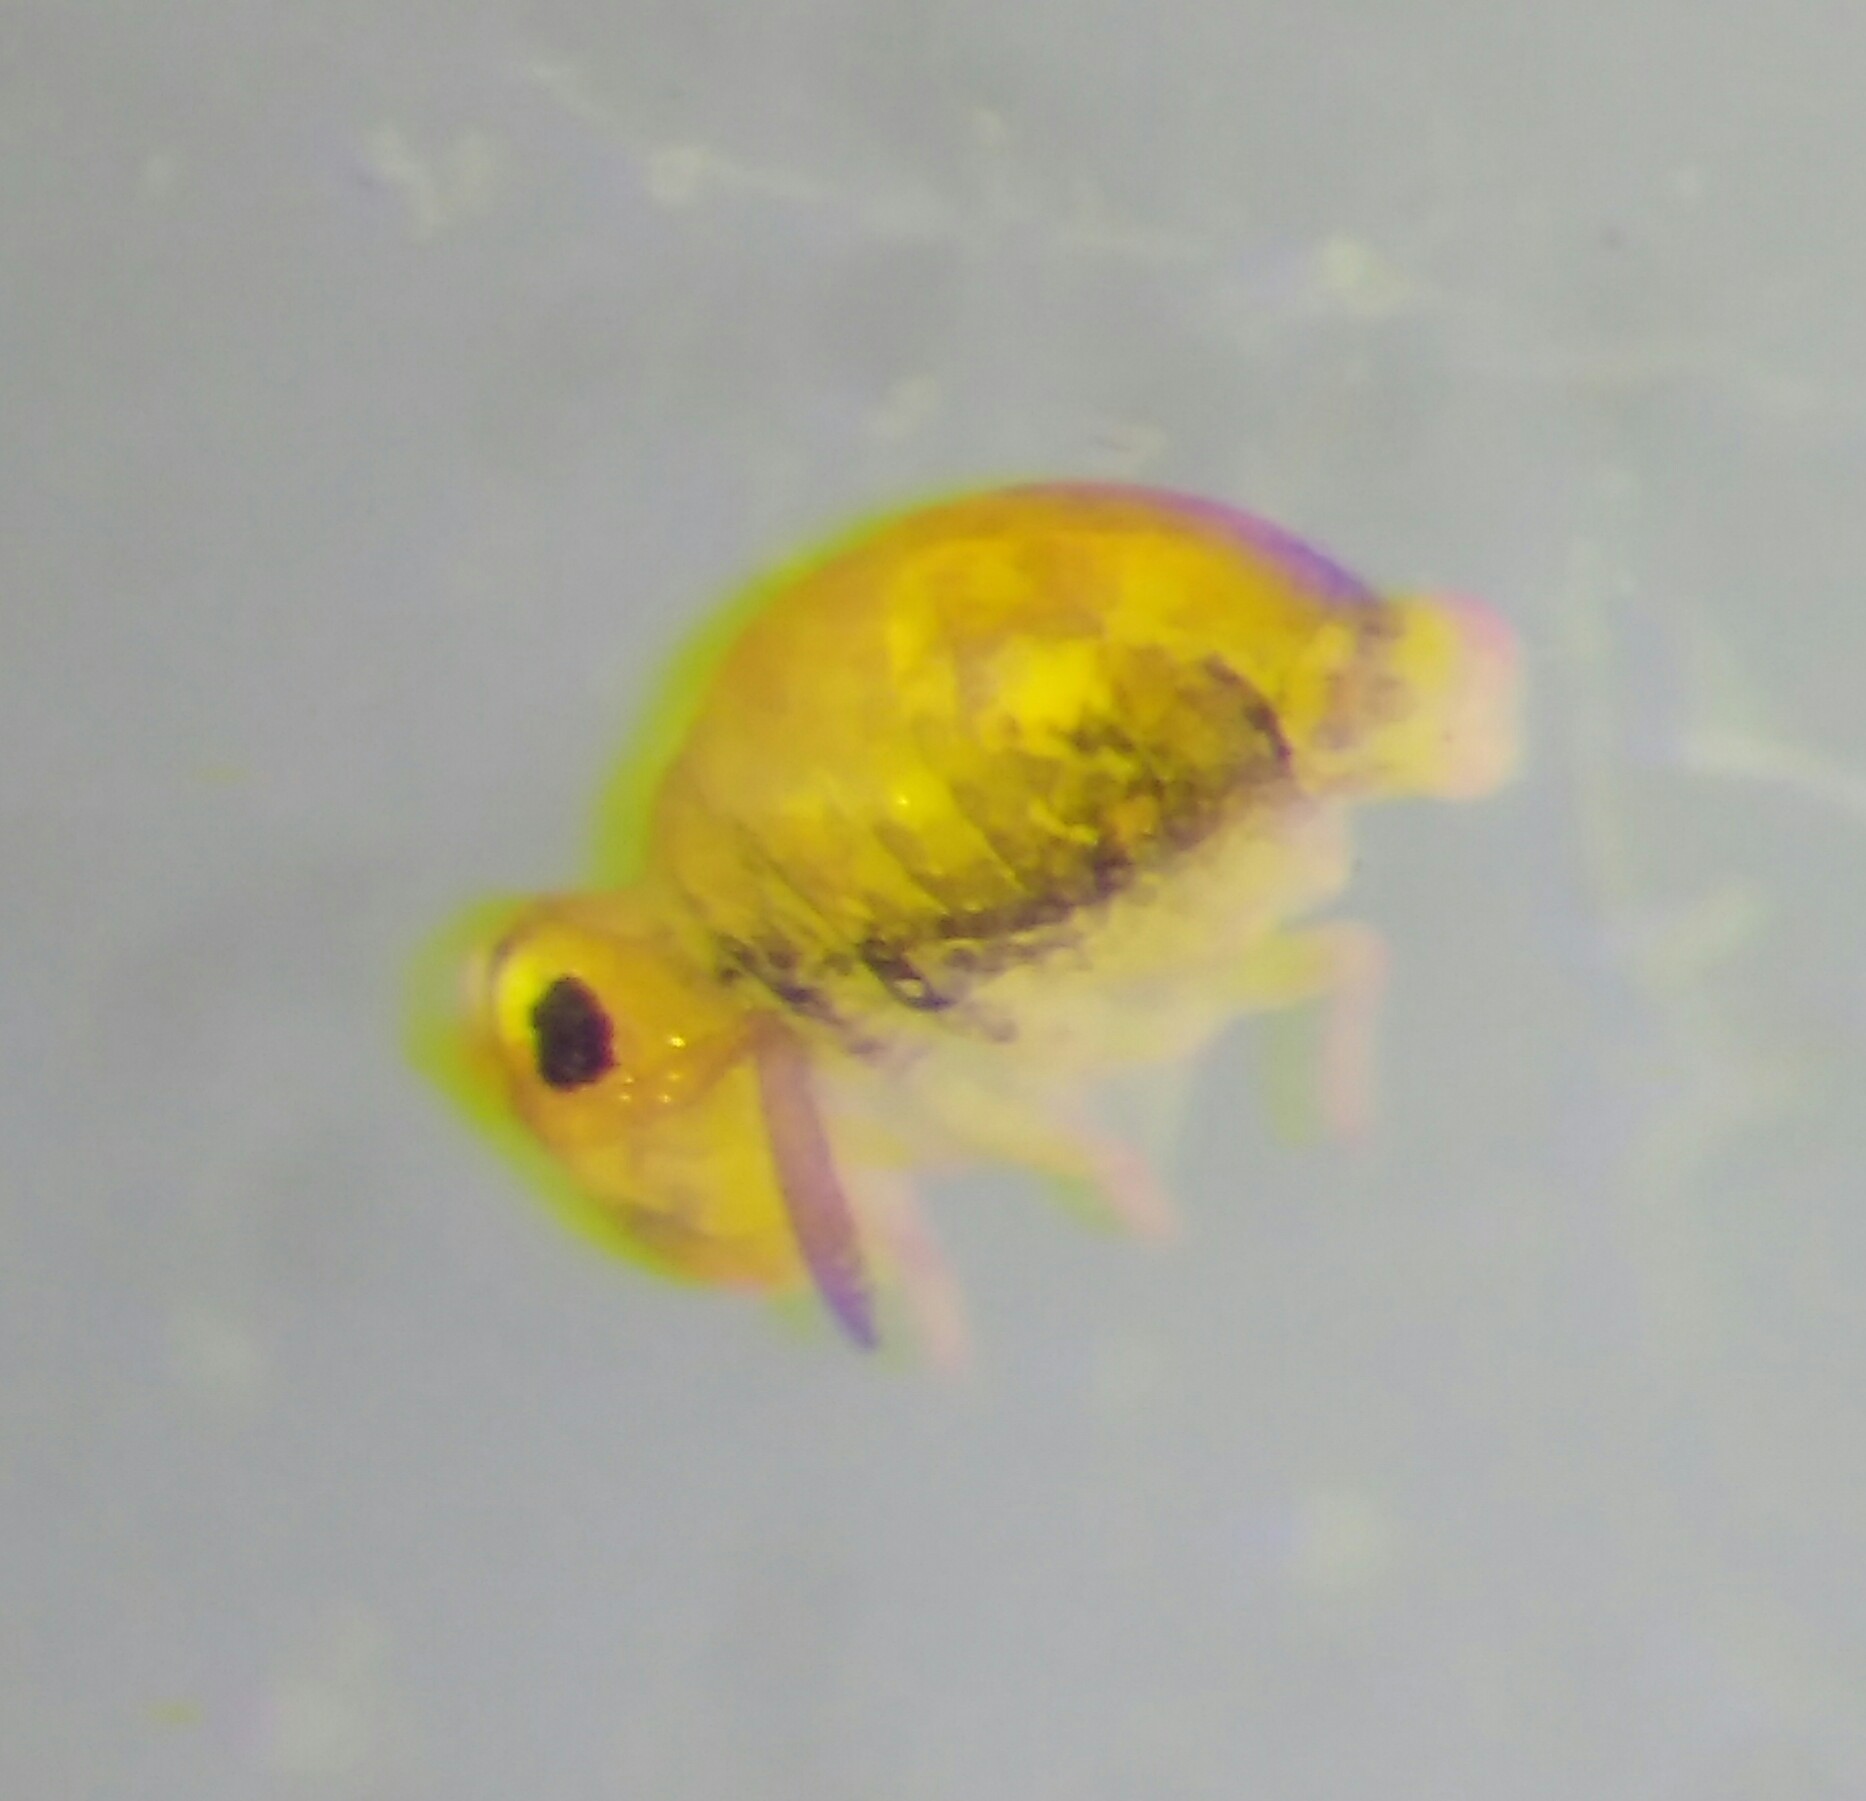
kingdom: Animalia
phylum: Arthropoda
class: Collembola
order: Symphypleona
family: Katiannidae
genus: Sminthurinus
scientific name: Sminthurinus aureus
